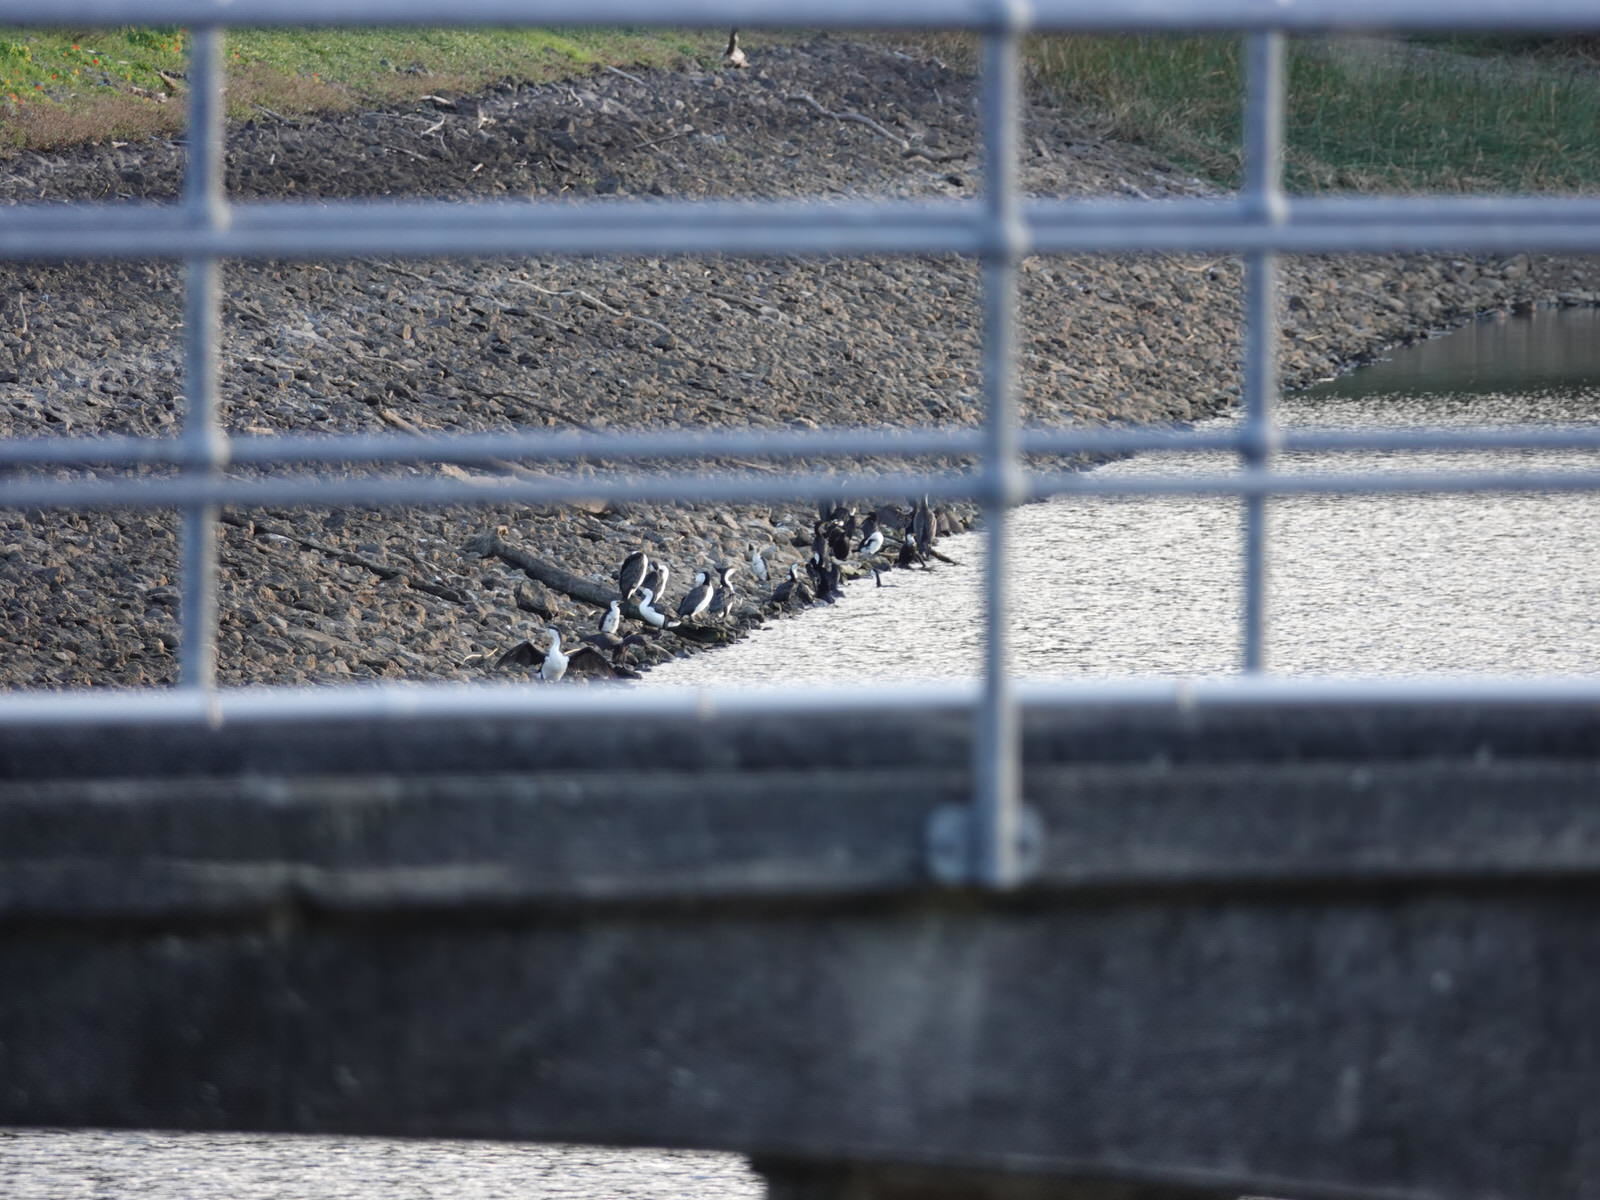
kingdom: Animalia
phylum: Chordata
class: Aves
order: Suliformes
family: Phalacrocoracidae
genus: Phalacrocorax
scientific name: Phalacrocorax varius
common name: Pied cormorant
